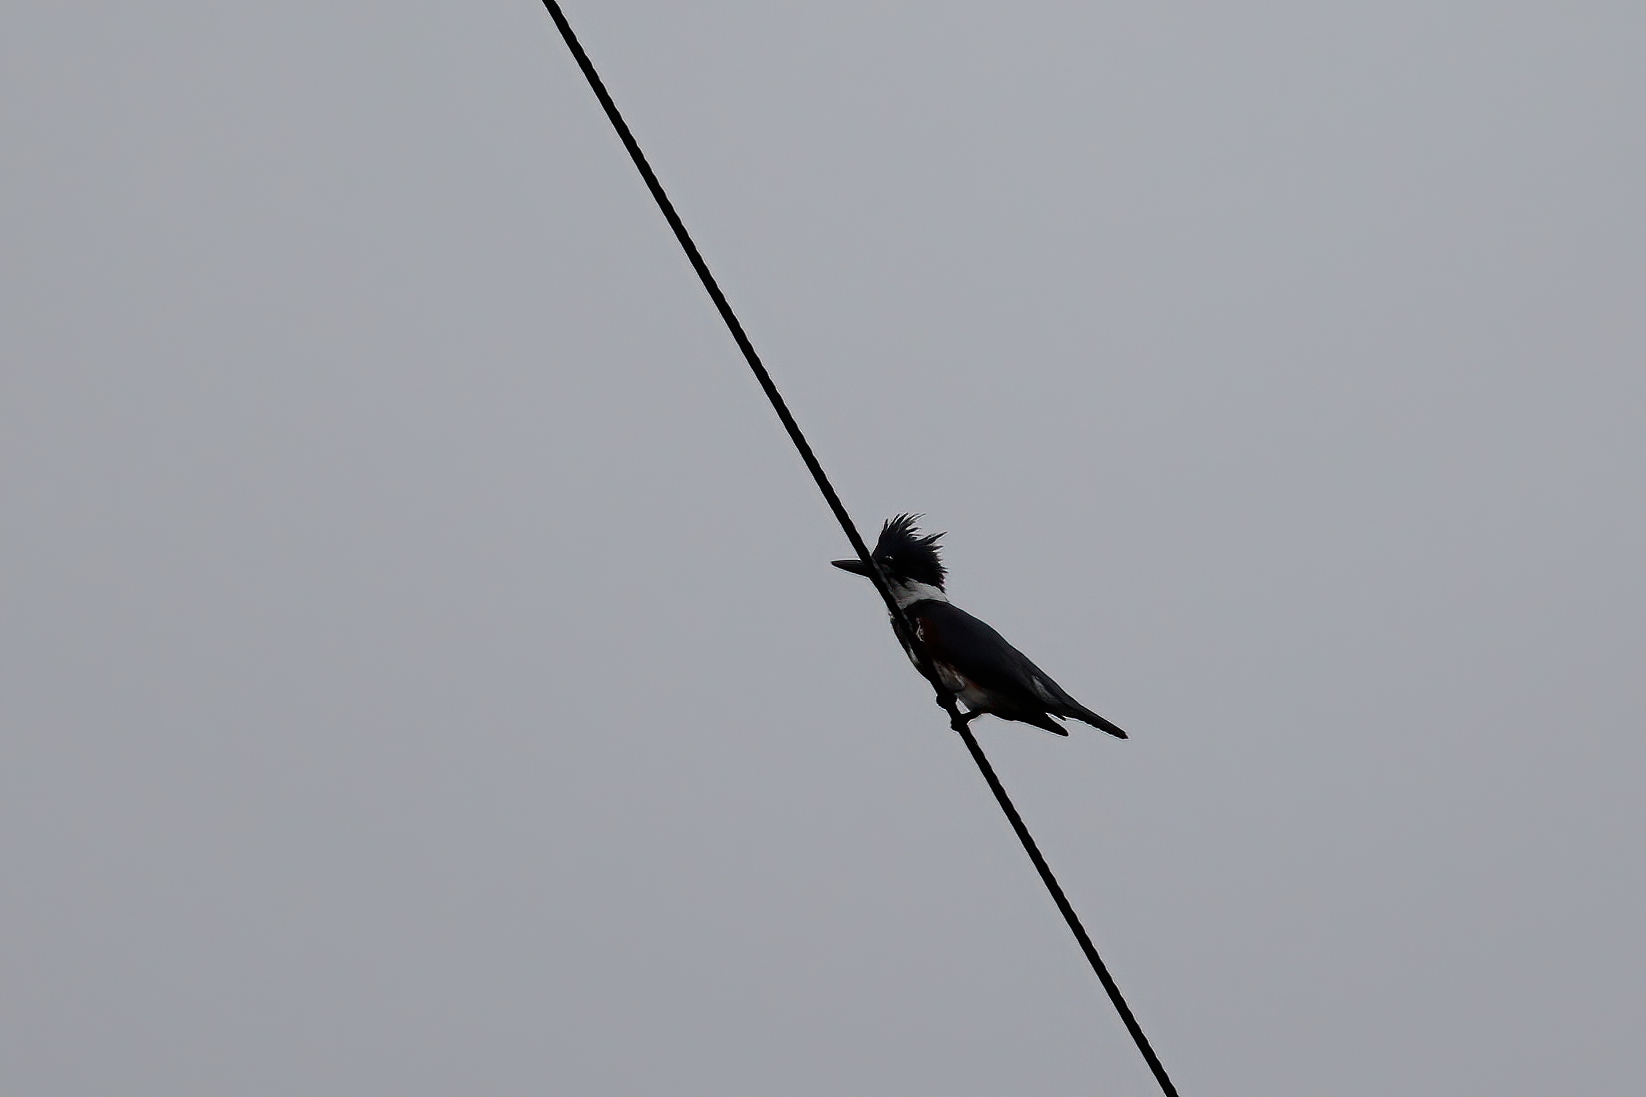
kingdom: Animalia
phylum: Chordata
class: Aves
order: Coraciiformes
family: Alcedinidae
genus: Megaceryle
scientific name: Megaceryle alcyon
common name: Belted kingfisher
